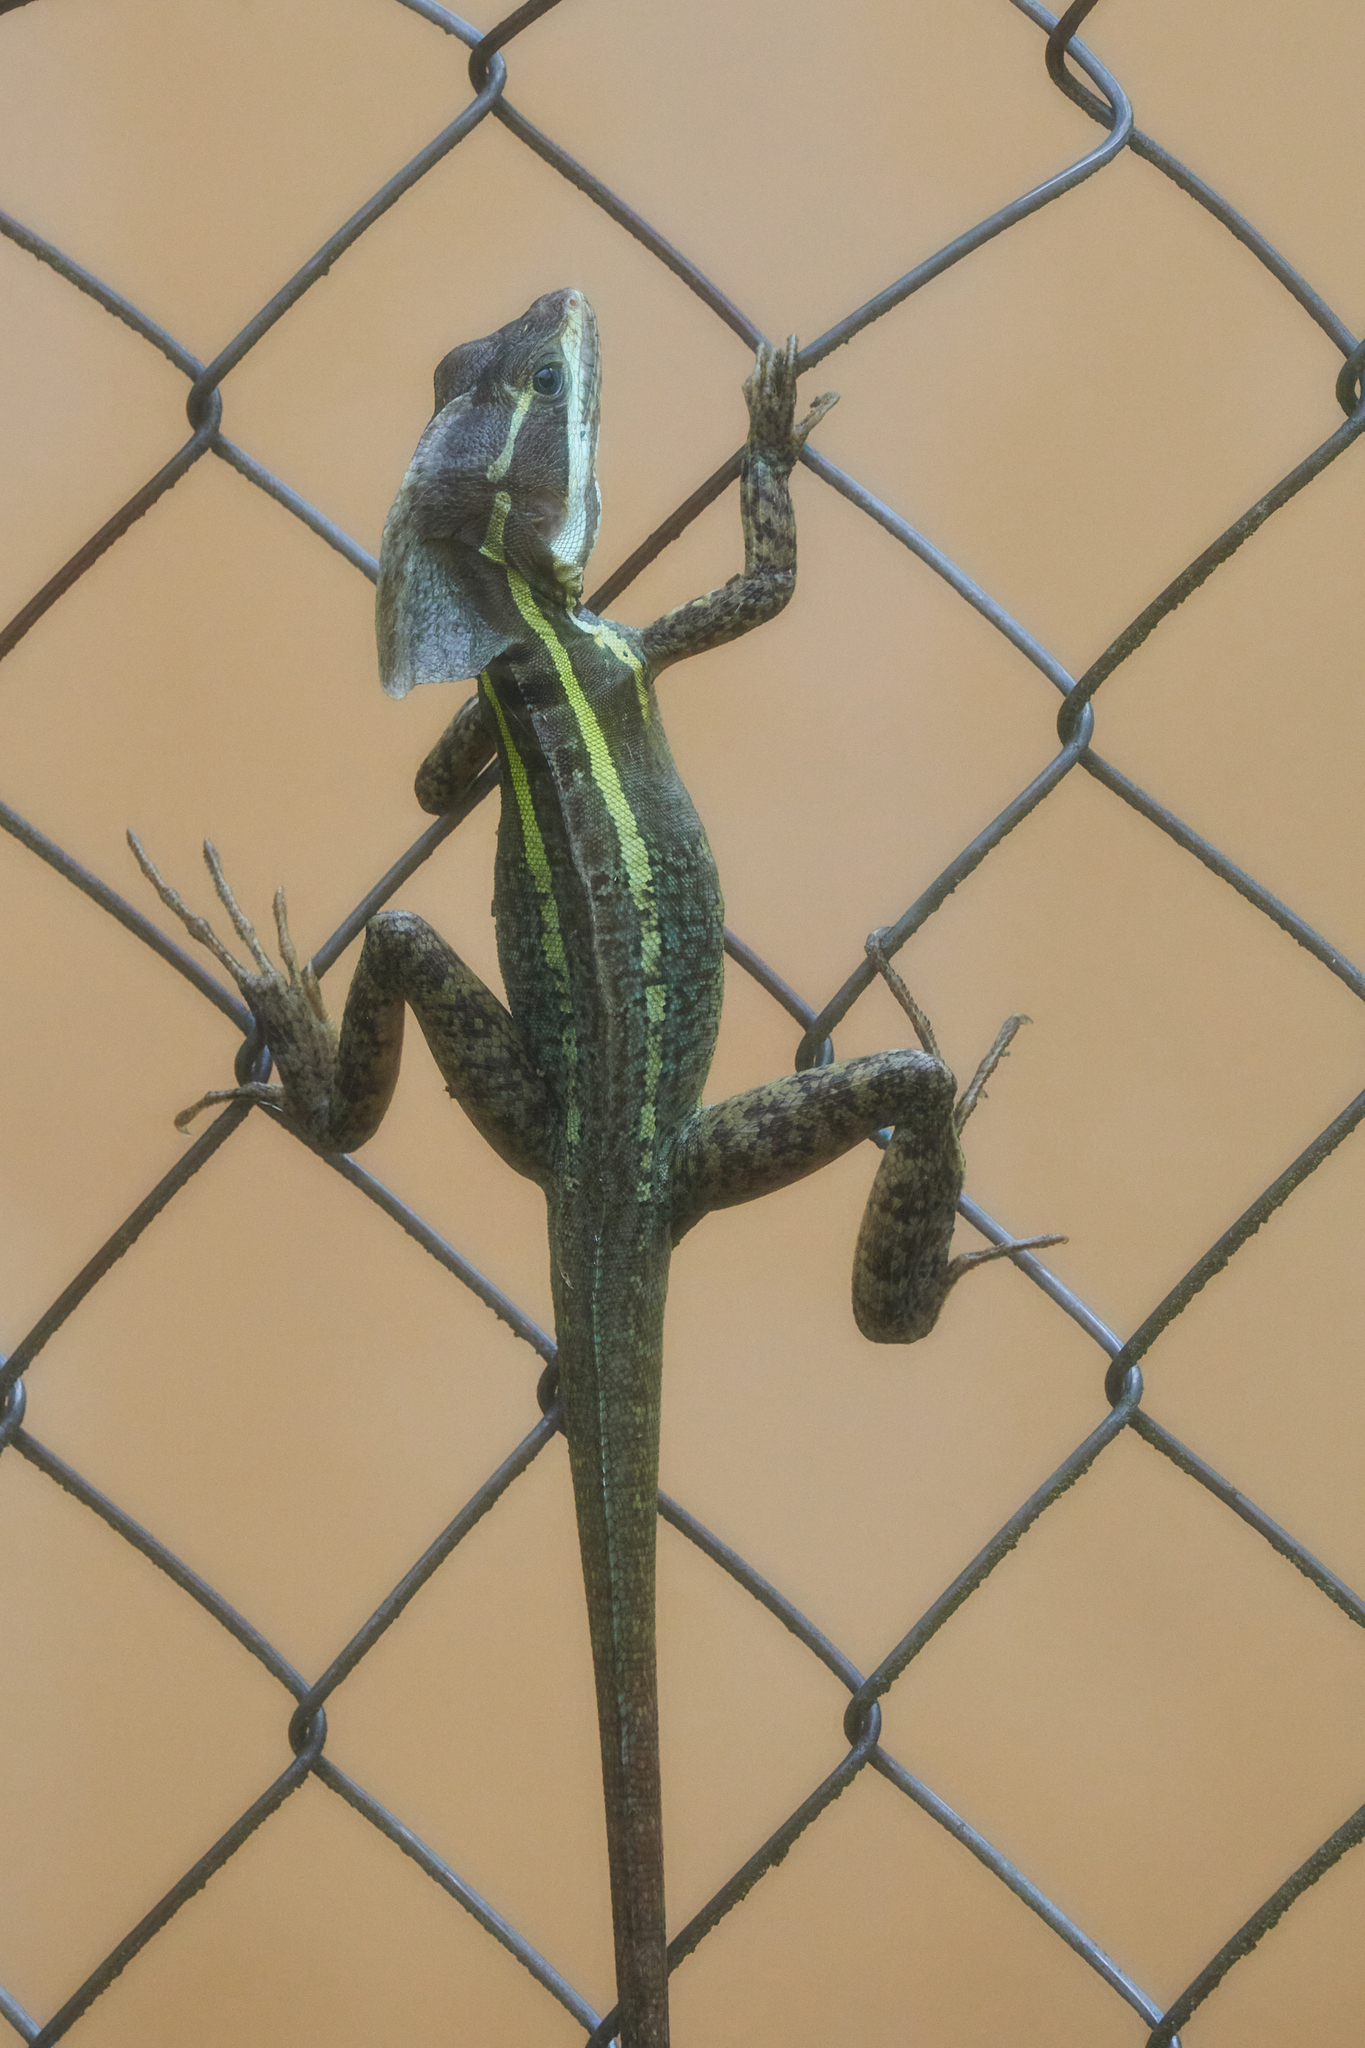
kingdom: Animalia
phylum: Chordata
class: Squamata
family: Corytophanidae
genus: Basiliscus
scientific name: Basiliscus vittatus
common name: Brown basilisk
